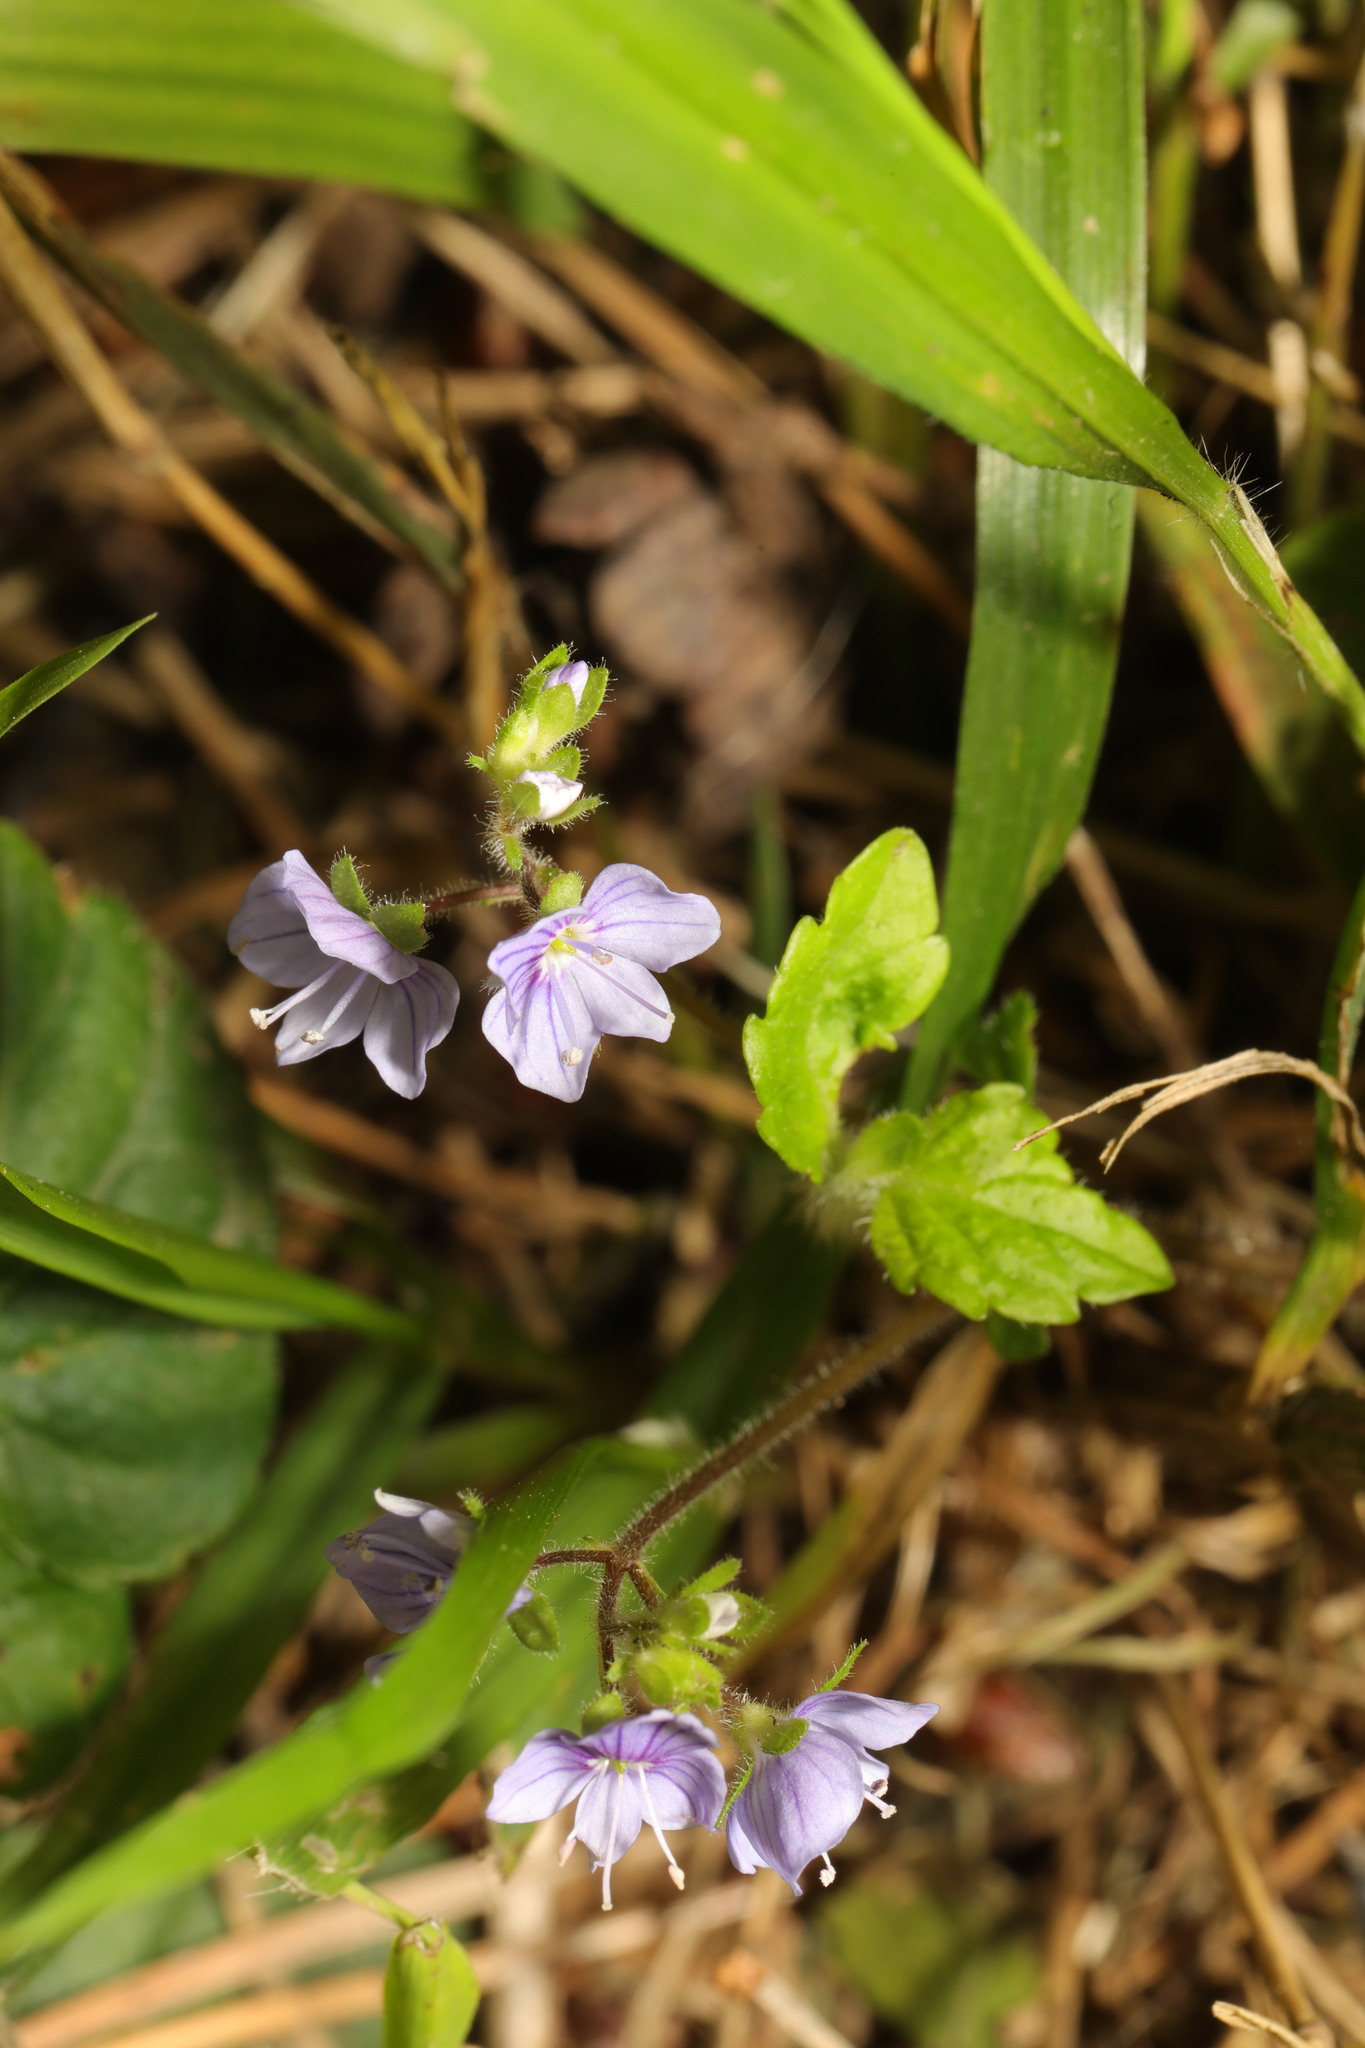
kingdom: Plantae
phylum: Tracheophyta
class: Magnoliopsida
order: Lamiales
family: Plantaginaceae
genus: Veronica
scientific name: Veronica montana
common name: Wood speedwell
